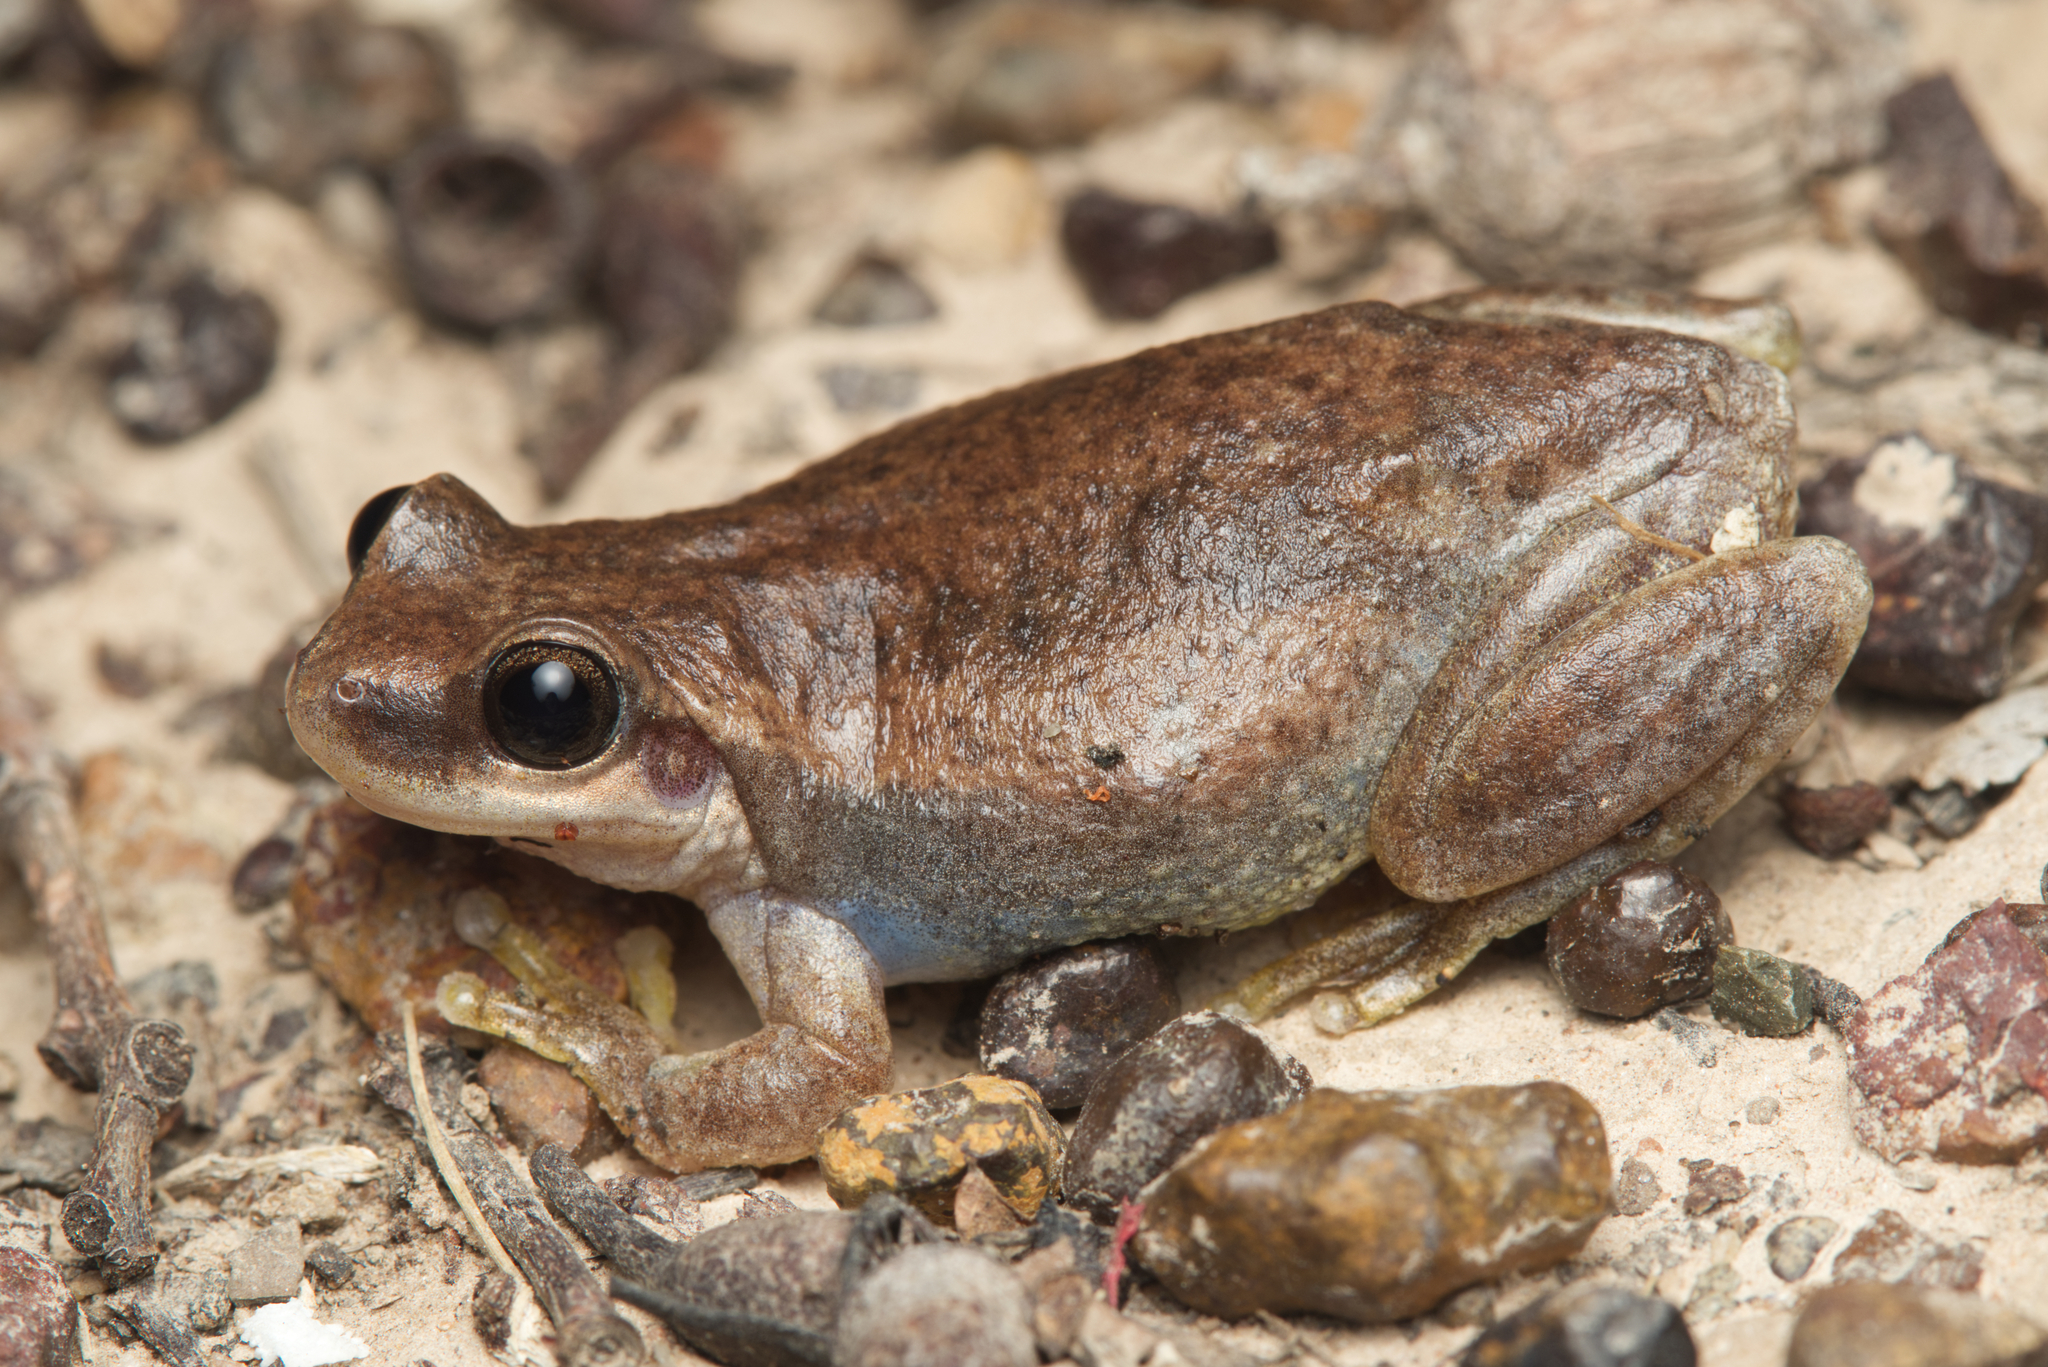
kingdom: Animalia
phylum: Chordata
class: Amphibia
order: Anura
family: Pelodryadidae
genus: Litoria
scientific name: Litoria rubella
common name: Desert tree frog
